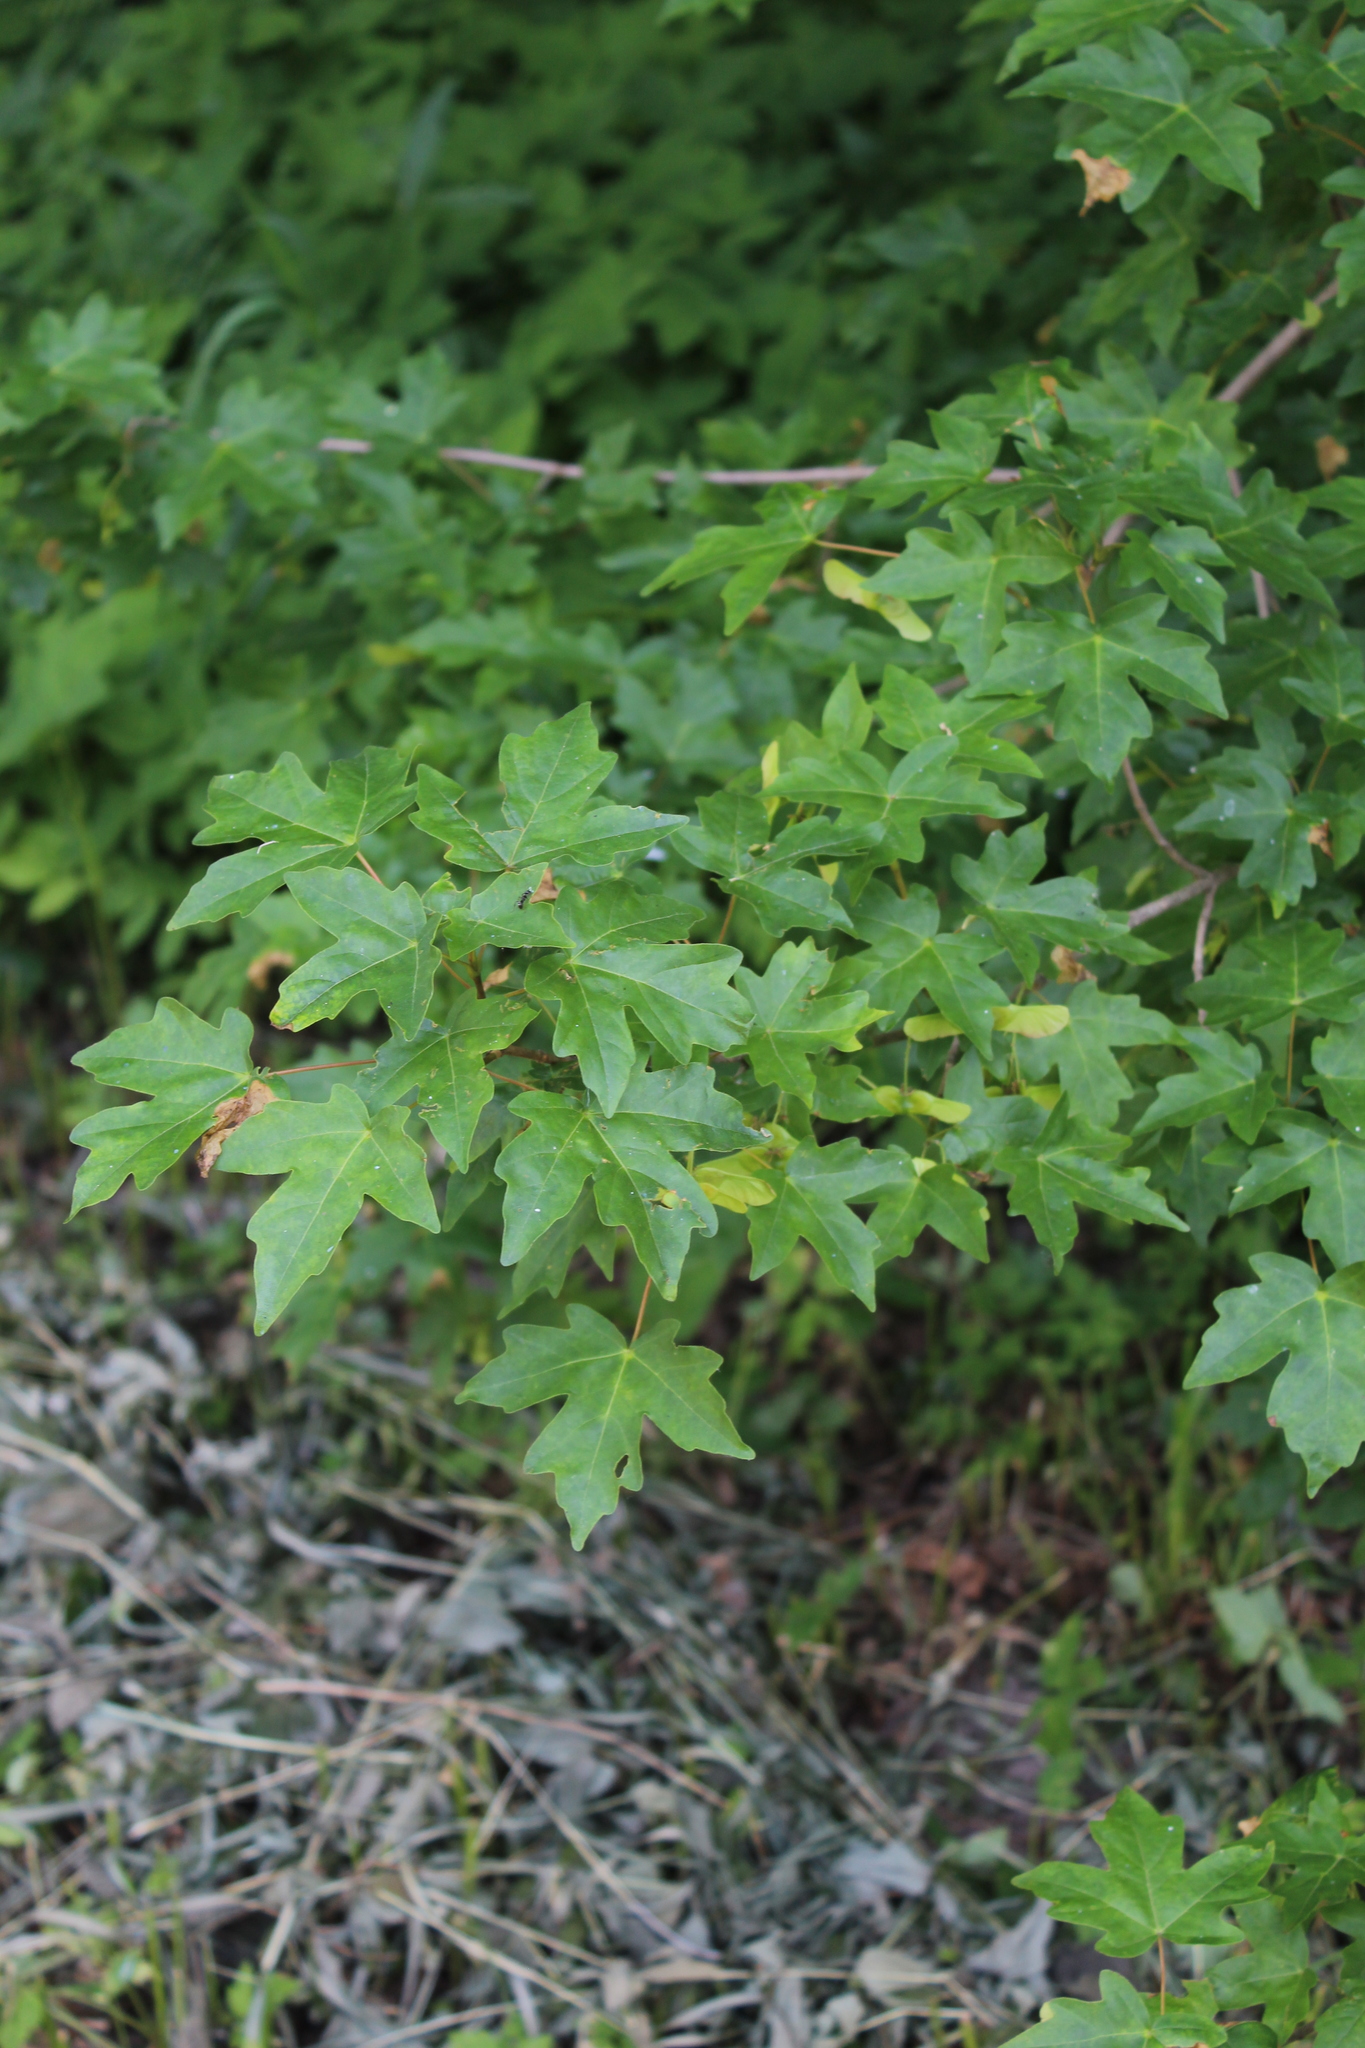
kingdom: Plantae
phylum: Tracheophyta
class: Magnoliopsida
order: Sapindales
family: Sapindaceae
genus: Acer
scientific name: Acer campestre
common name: Field maple
